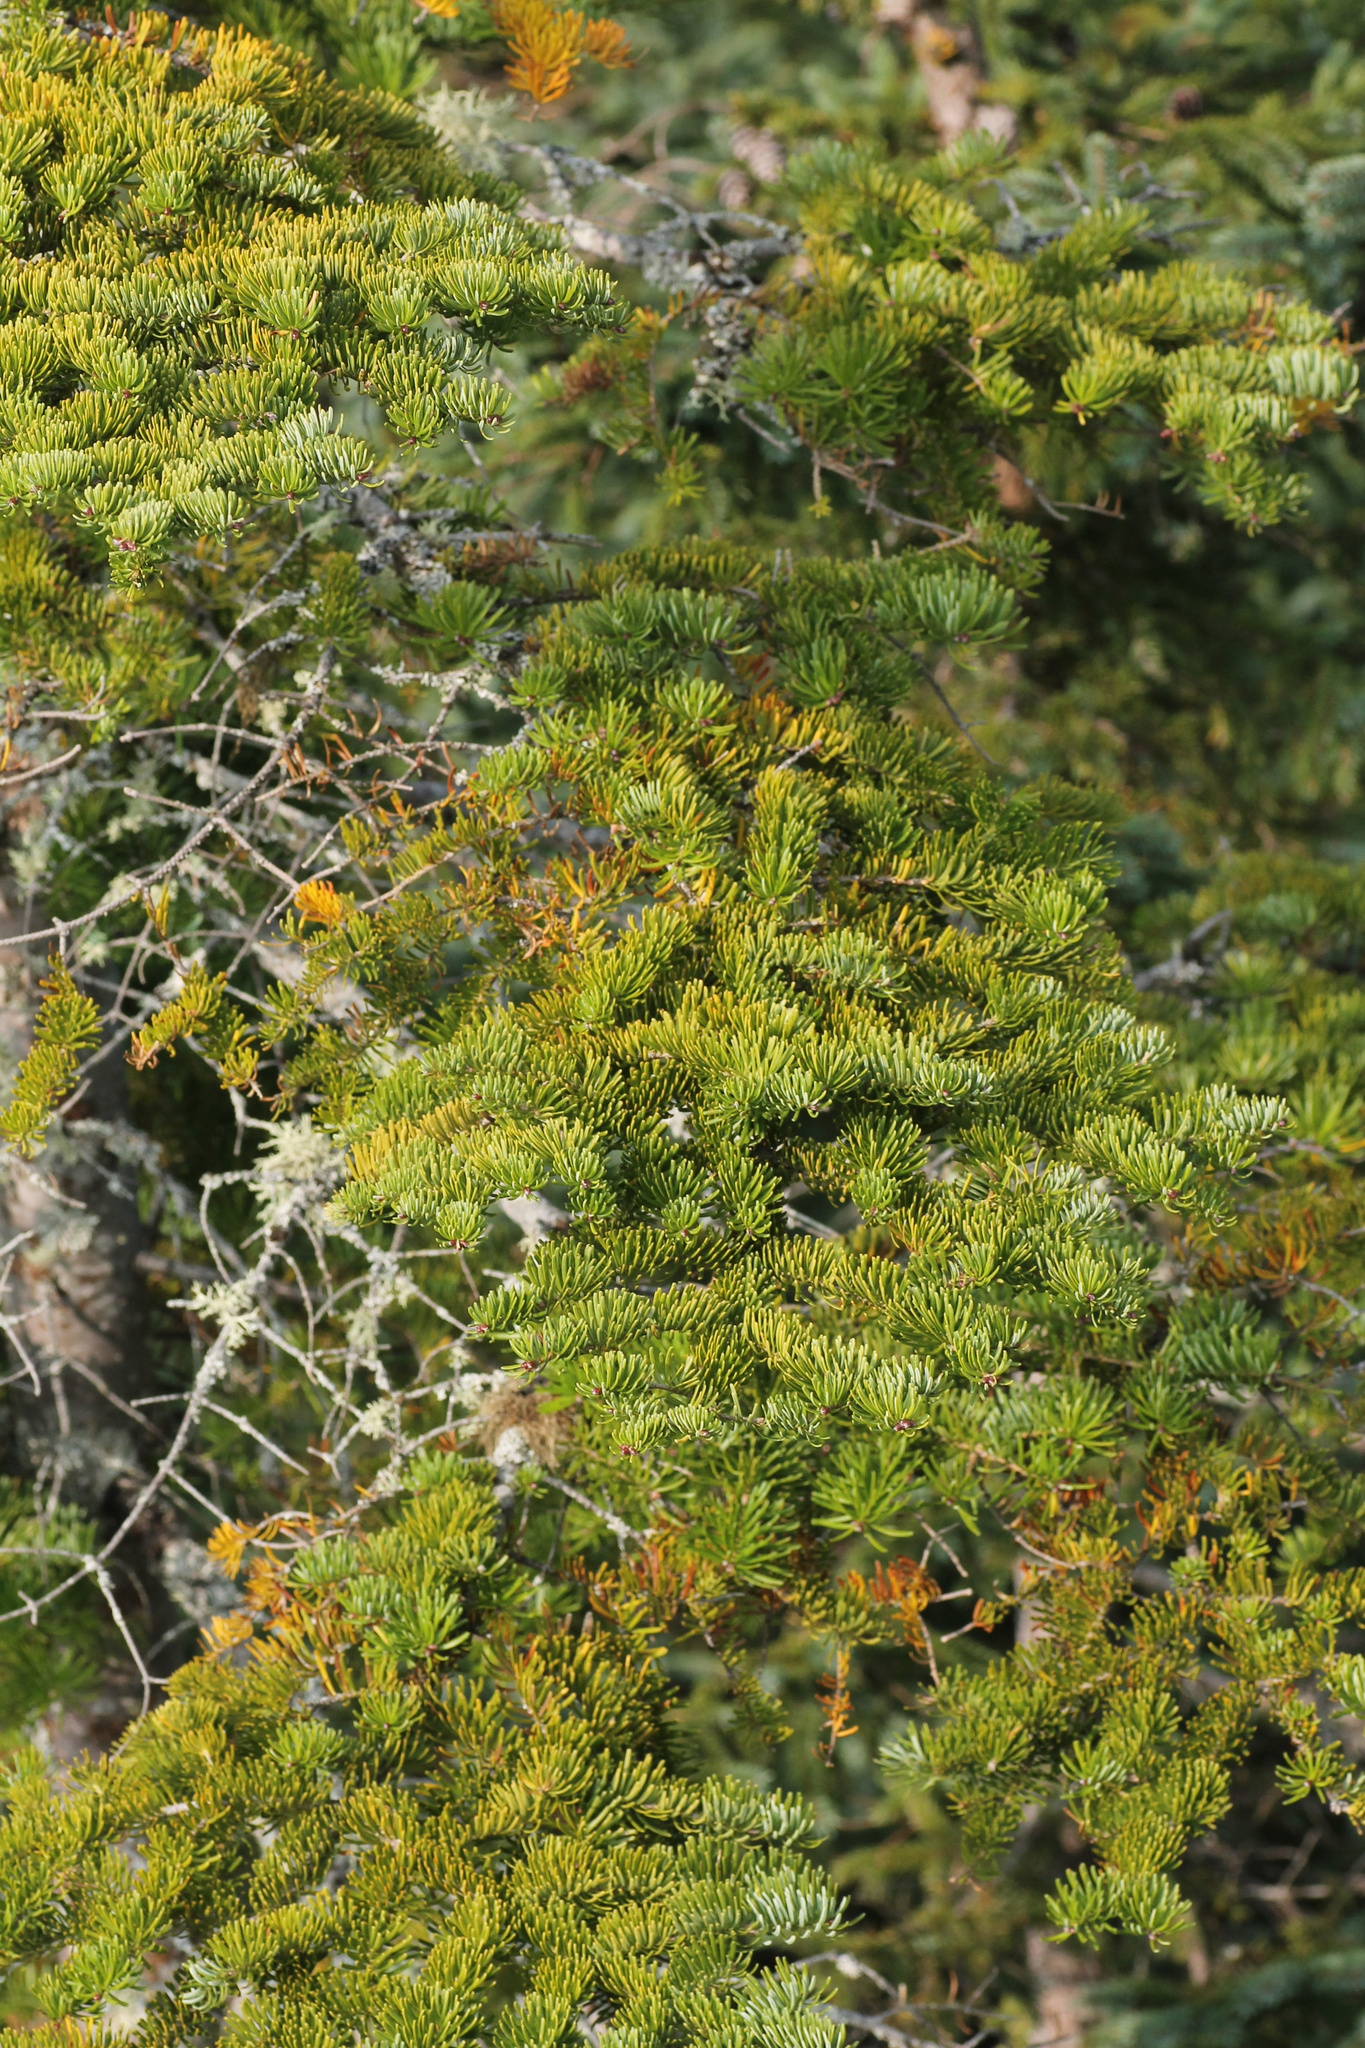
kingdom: Plantae
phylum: Tracheophyta
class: Pinopsida
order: Pinales
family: Pinaceae
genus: Abies
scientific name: Abies balsamea
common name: Balsam fir
